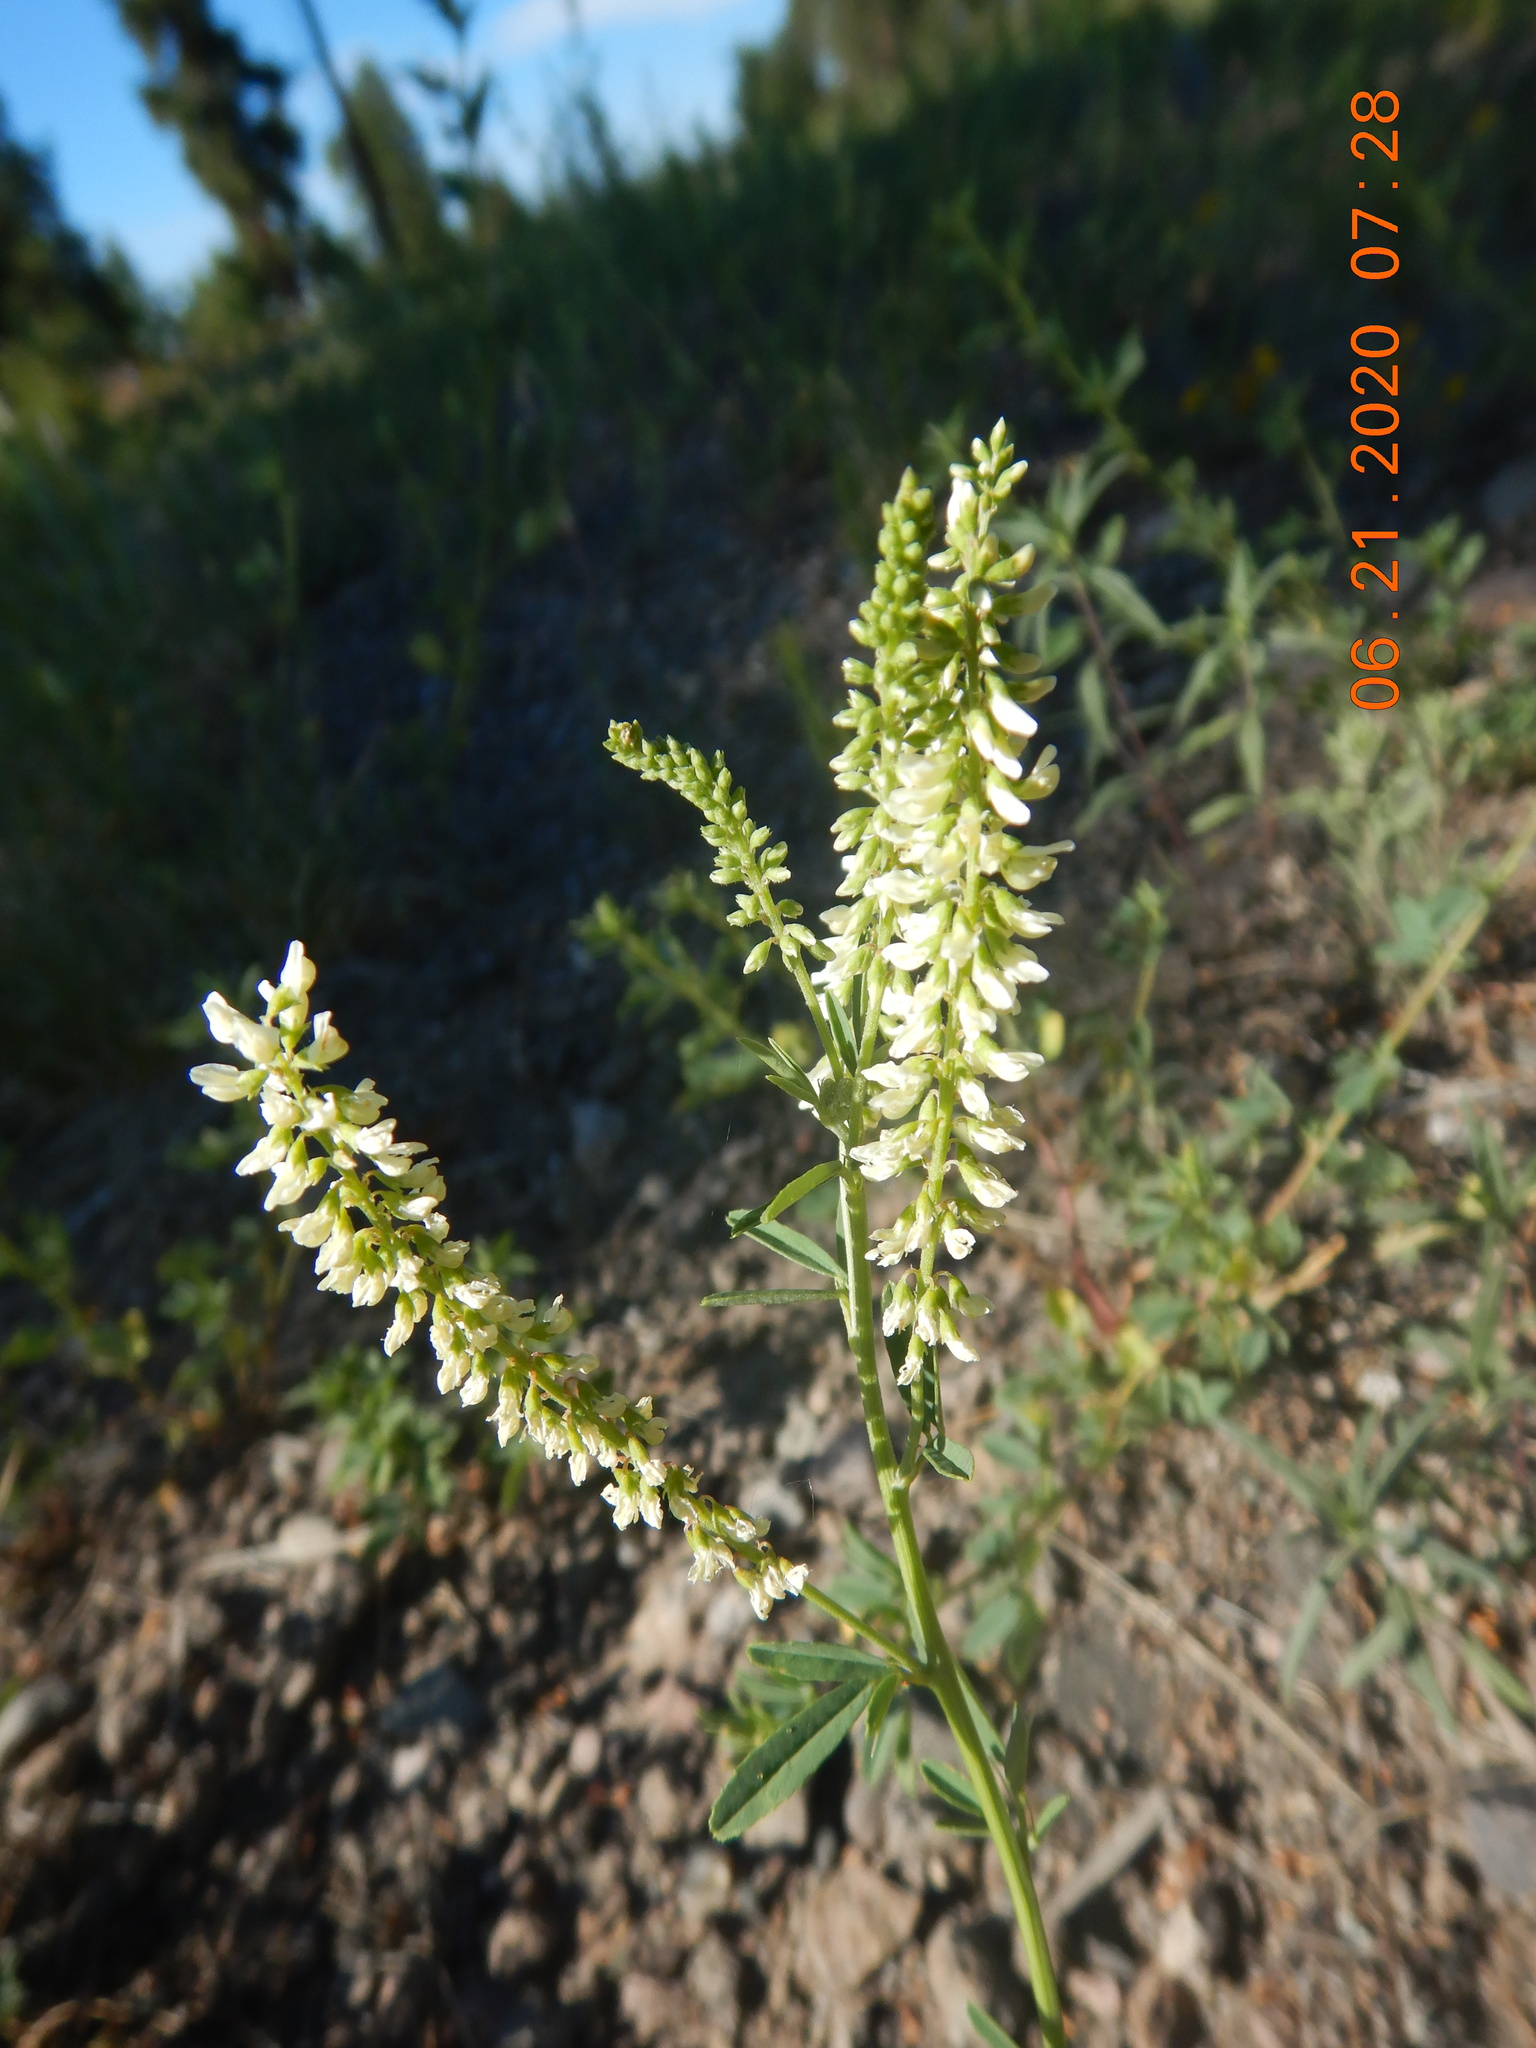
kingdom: Plantae
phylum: Tracheophyta
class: Magnoliopsida
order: Fabales
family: Fabaceae
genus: Melilotus
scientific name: Melilotus albus
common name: White melilot
